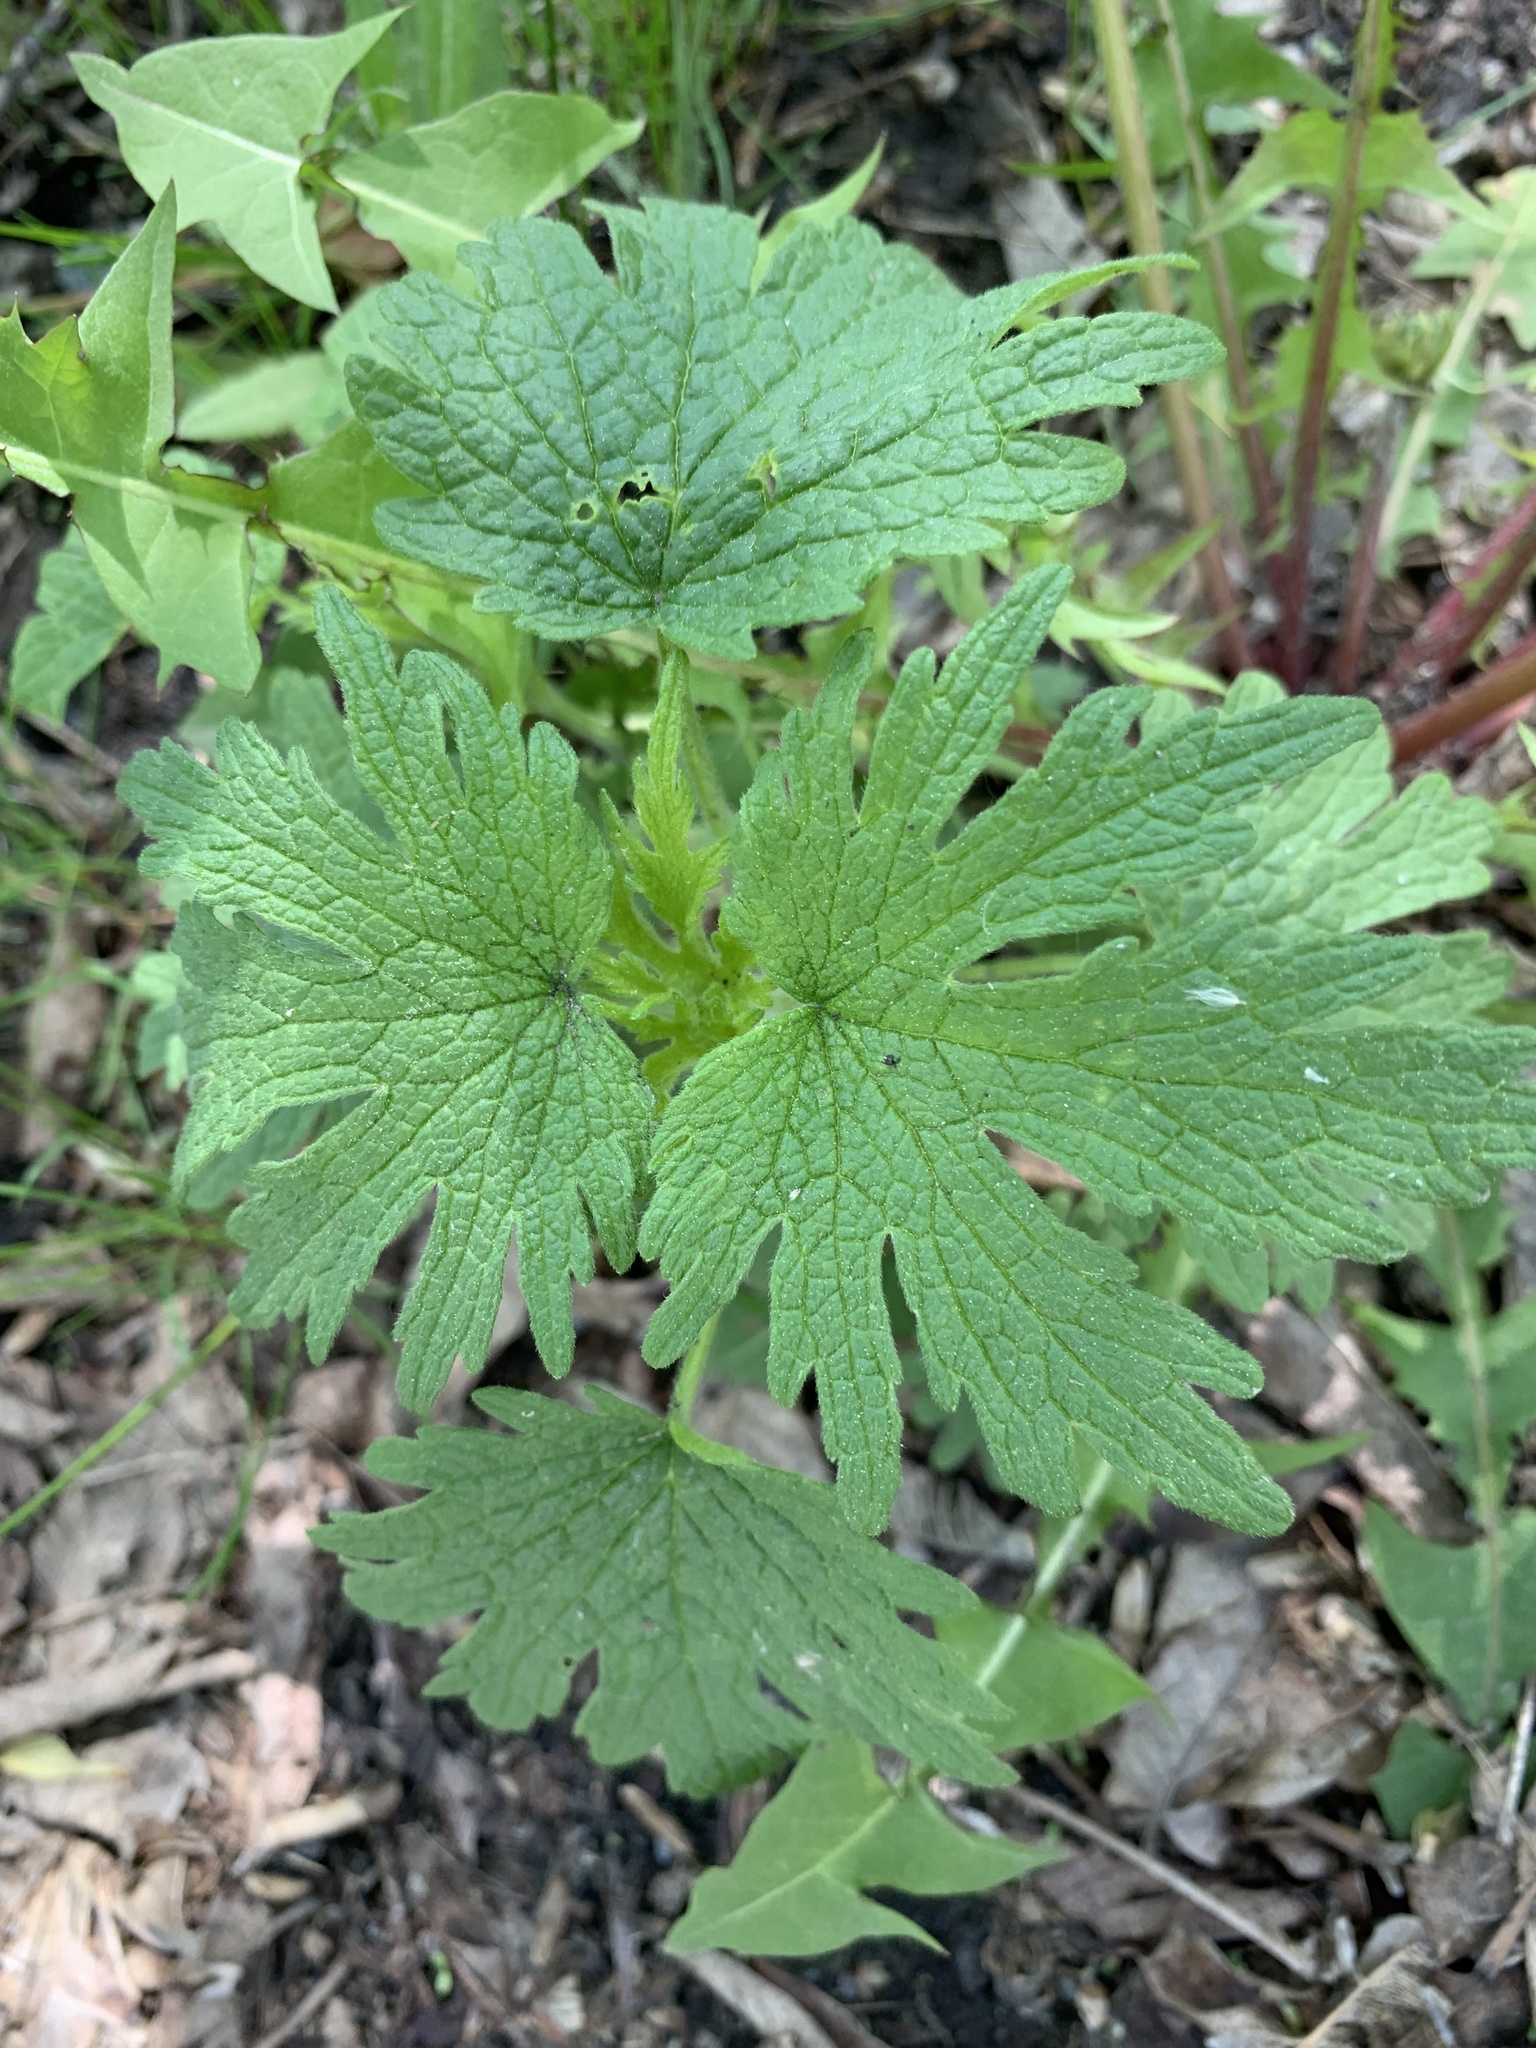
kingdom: Plantae
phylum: Tracheophyta
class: Magnoliopsida
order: Lamiales
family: Lamiaceae
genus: Leonurus
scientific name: Leonurus quinquelobatus
